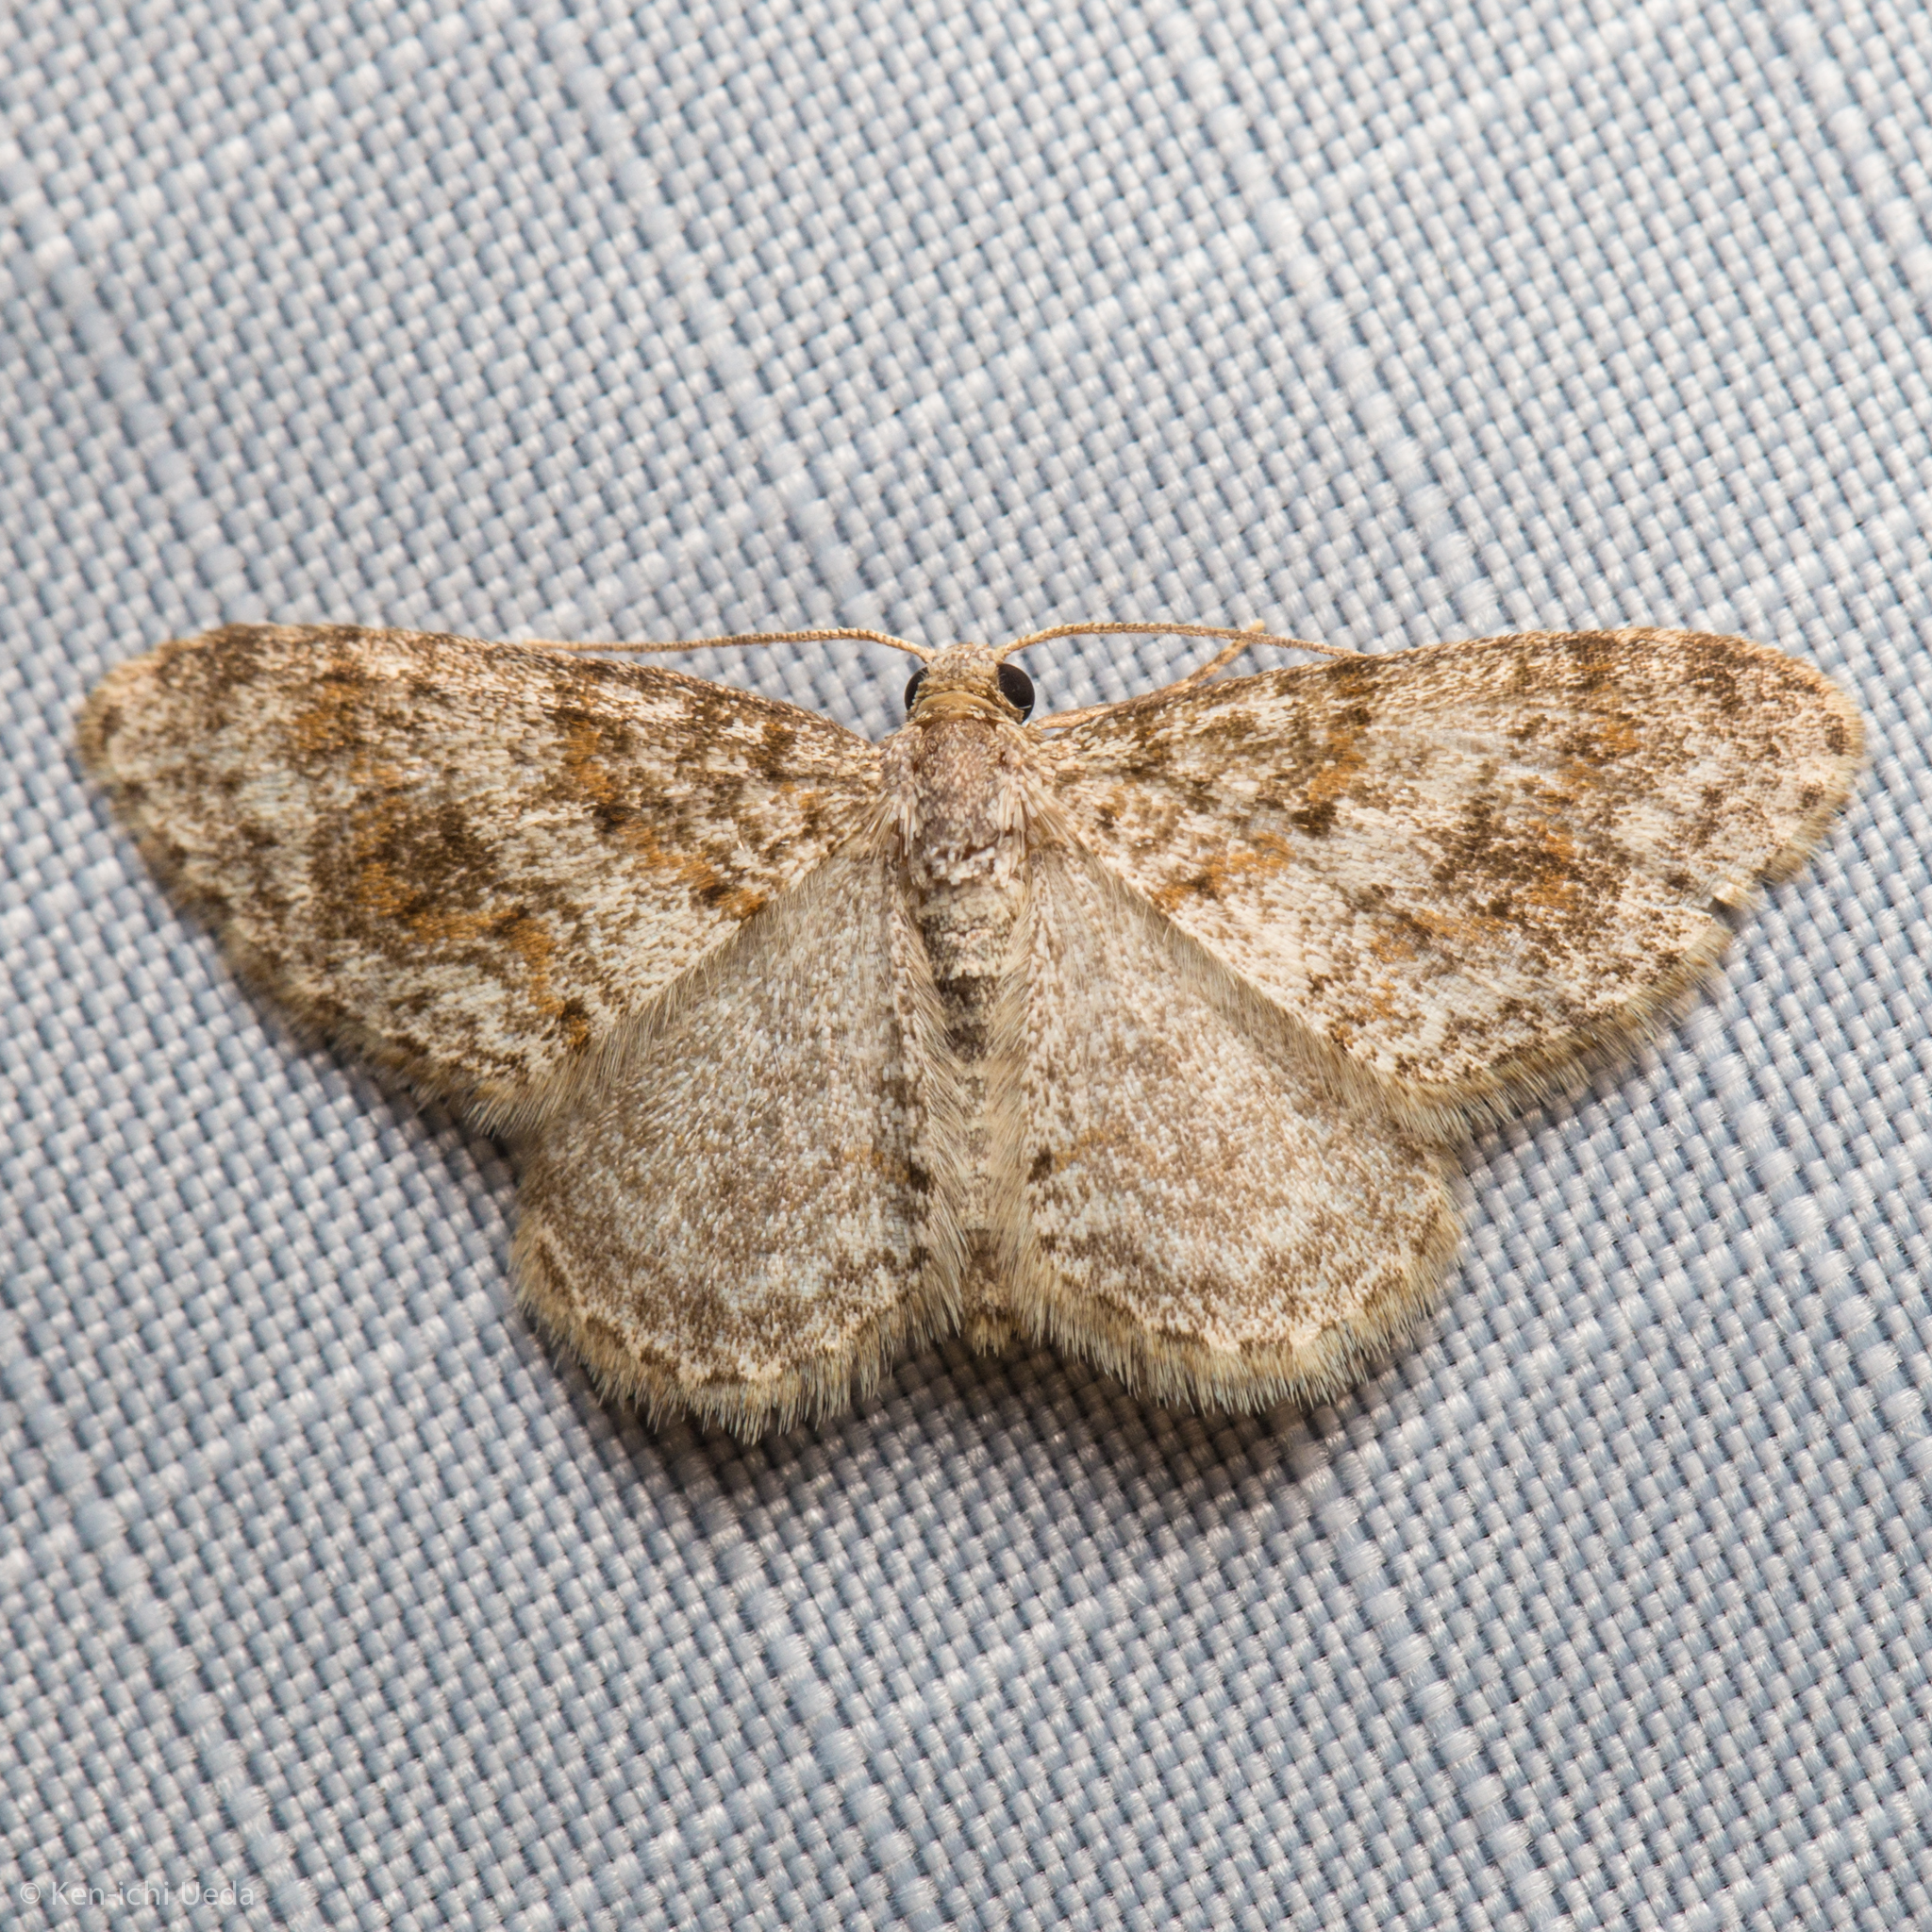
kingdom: Animalia
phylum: Arthropoda
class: Insecta
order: Lepidoptera
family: Geometridae
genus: Hydrelia
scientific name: Hydrelia inornata
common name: Unadorned carpet moth
